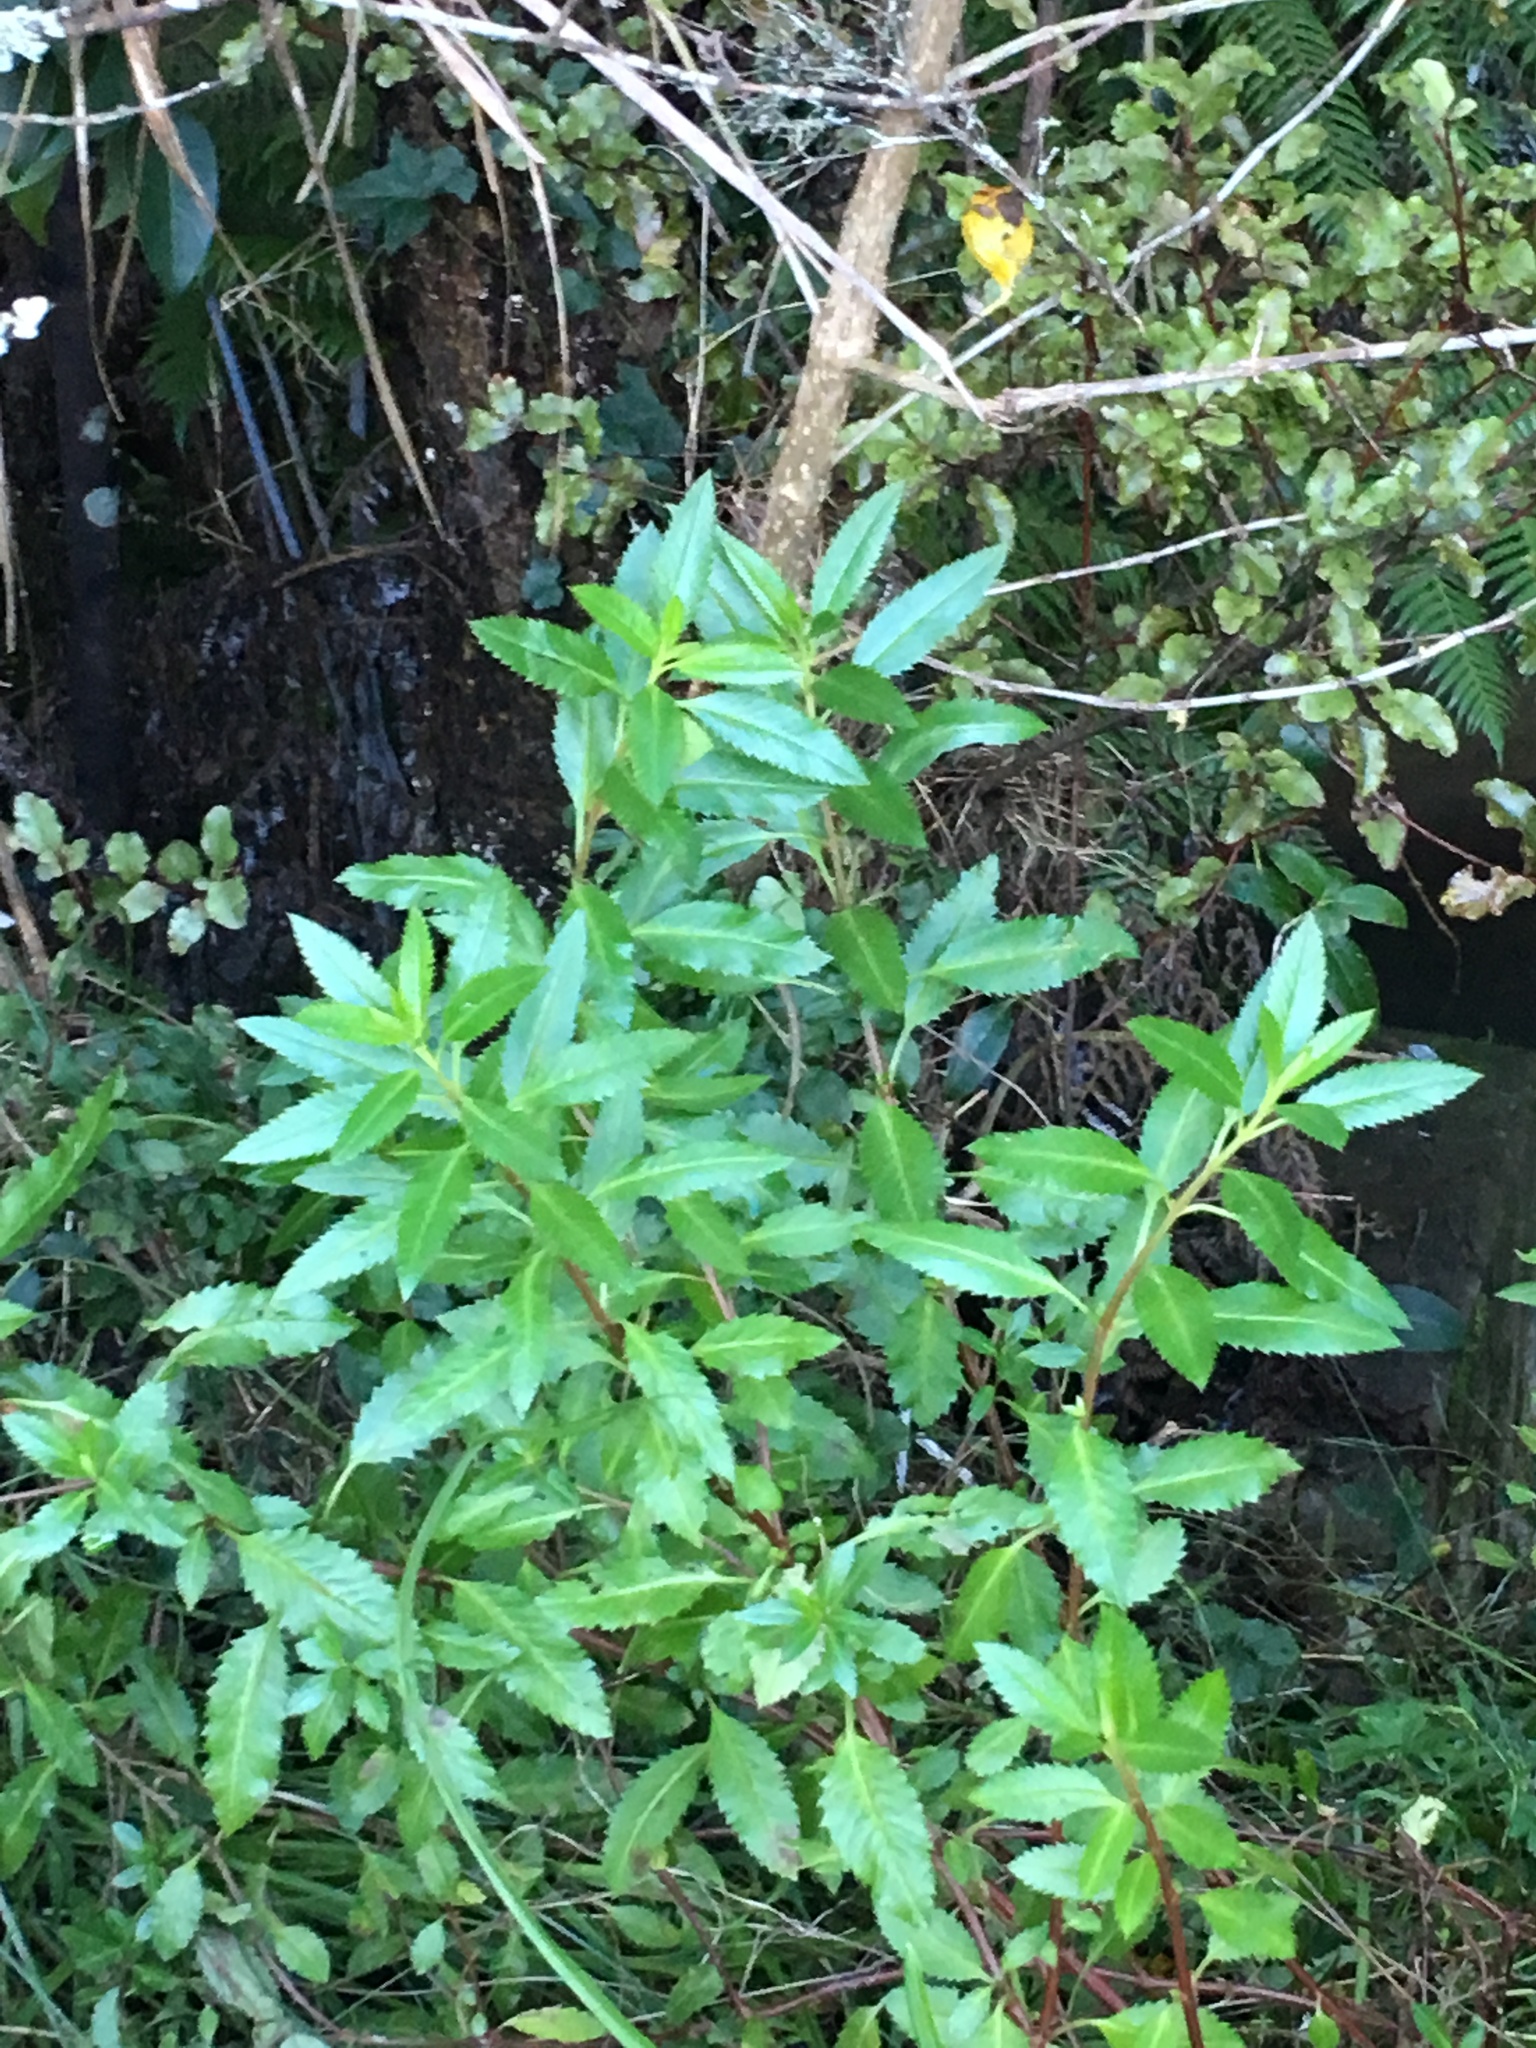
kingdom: Plantae
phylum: Tracheophyta
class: Magnoliopsida
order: Saxifragales
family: Haloragaceae
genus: Haloragis
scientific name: Haloragis erecta
